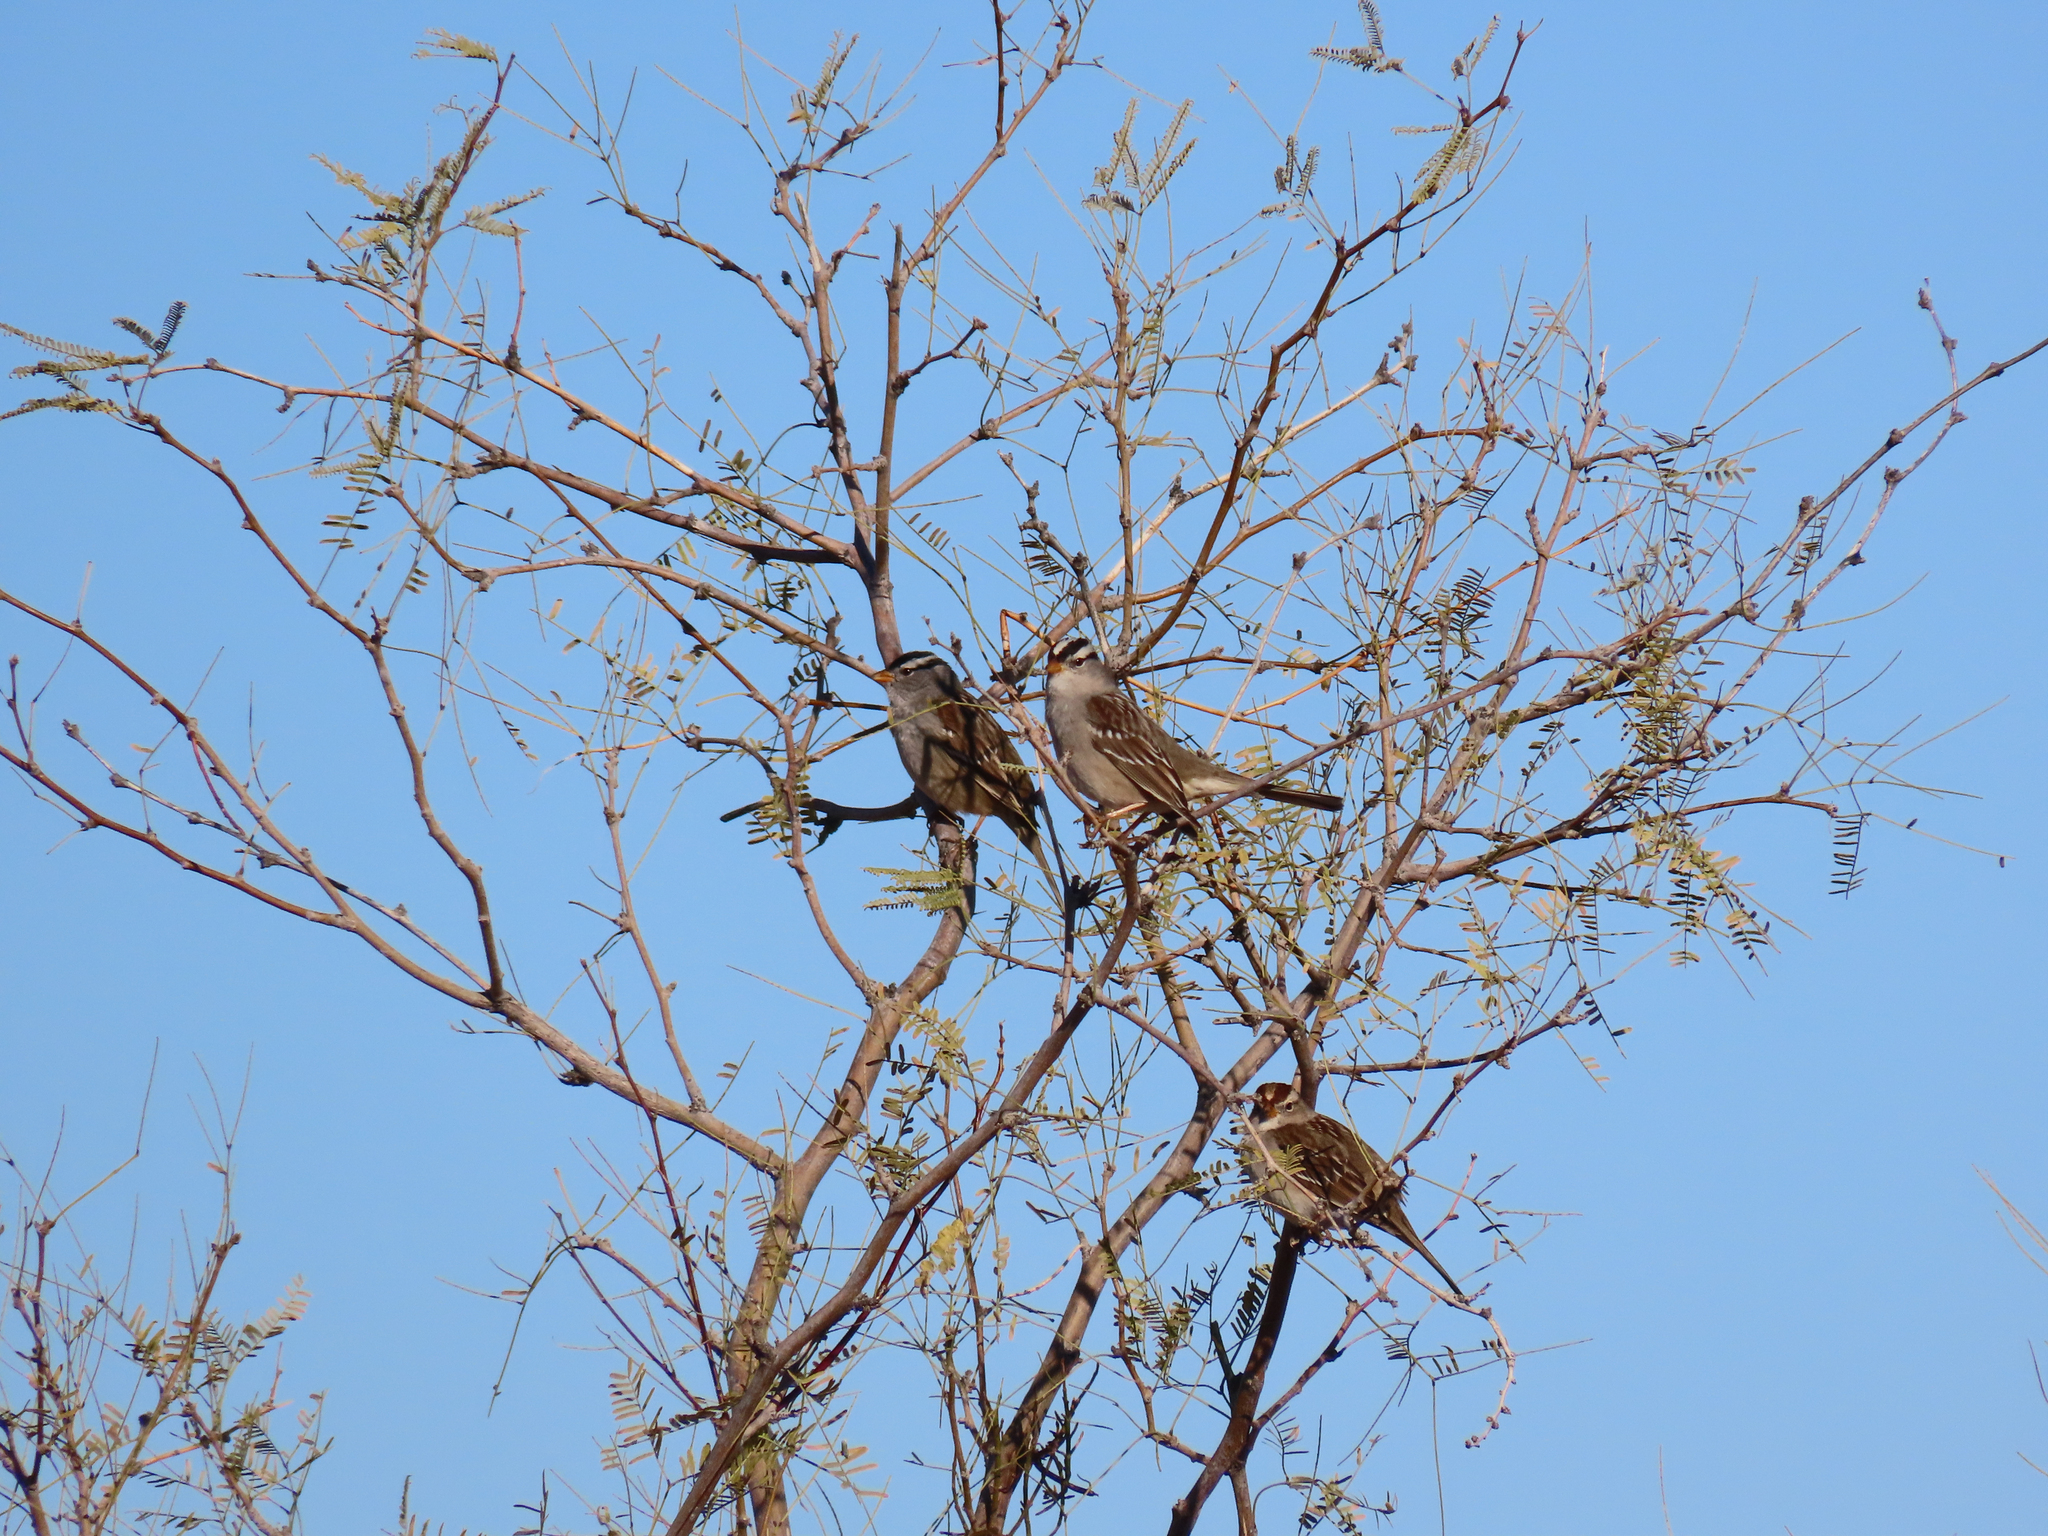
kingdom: Animalia
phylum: Chordata
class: Aves
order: Passeriformes
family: Passerellidae
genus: Zonotrichia
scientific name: Zonotrichia leucophrys
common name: White-crowned sparrow
